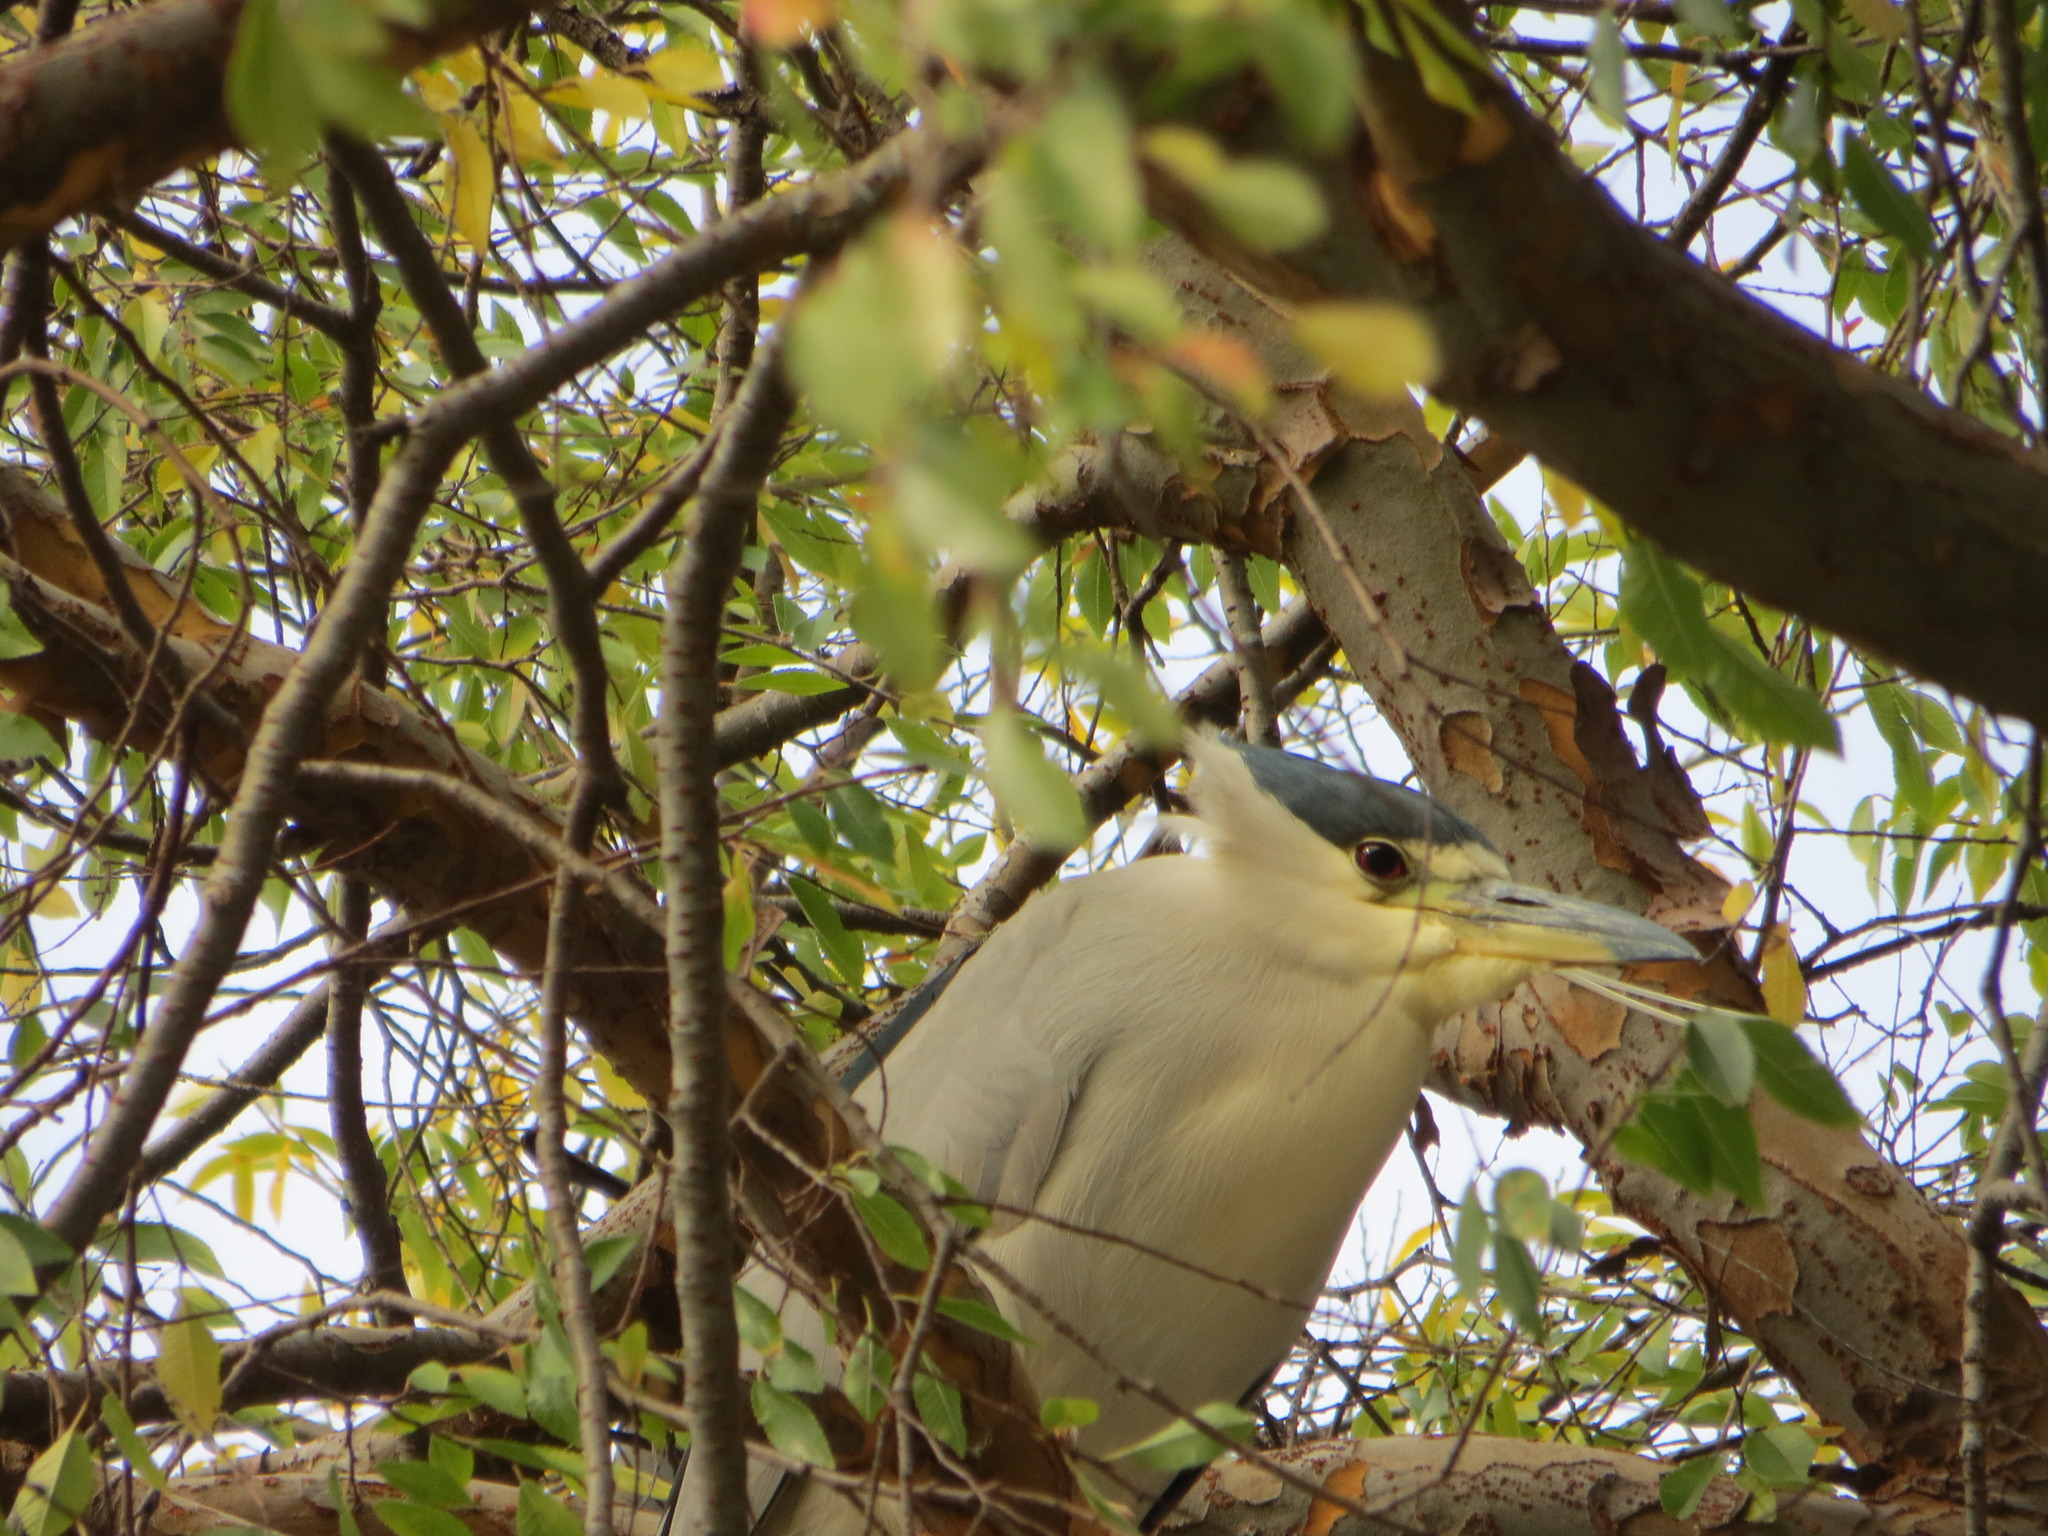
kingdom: Animalia
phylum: Chordata
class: Aves
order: Pelecaniformes
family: Ardeidae
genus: Nycticorax
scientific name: Nycticorax nycticorax
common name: Black-crowned night heron
